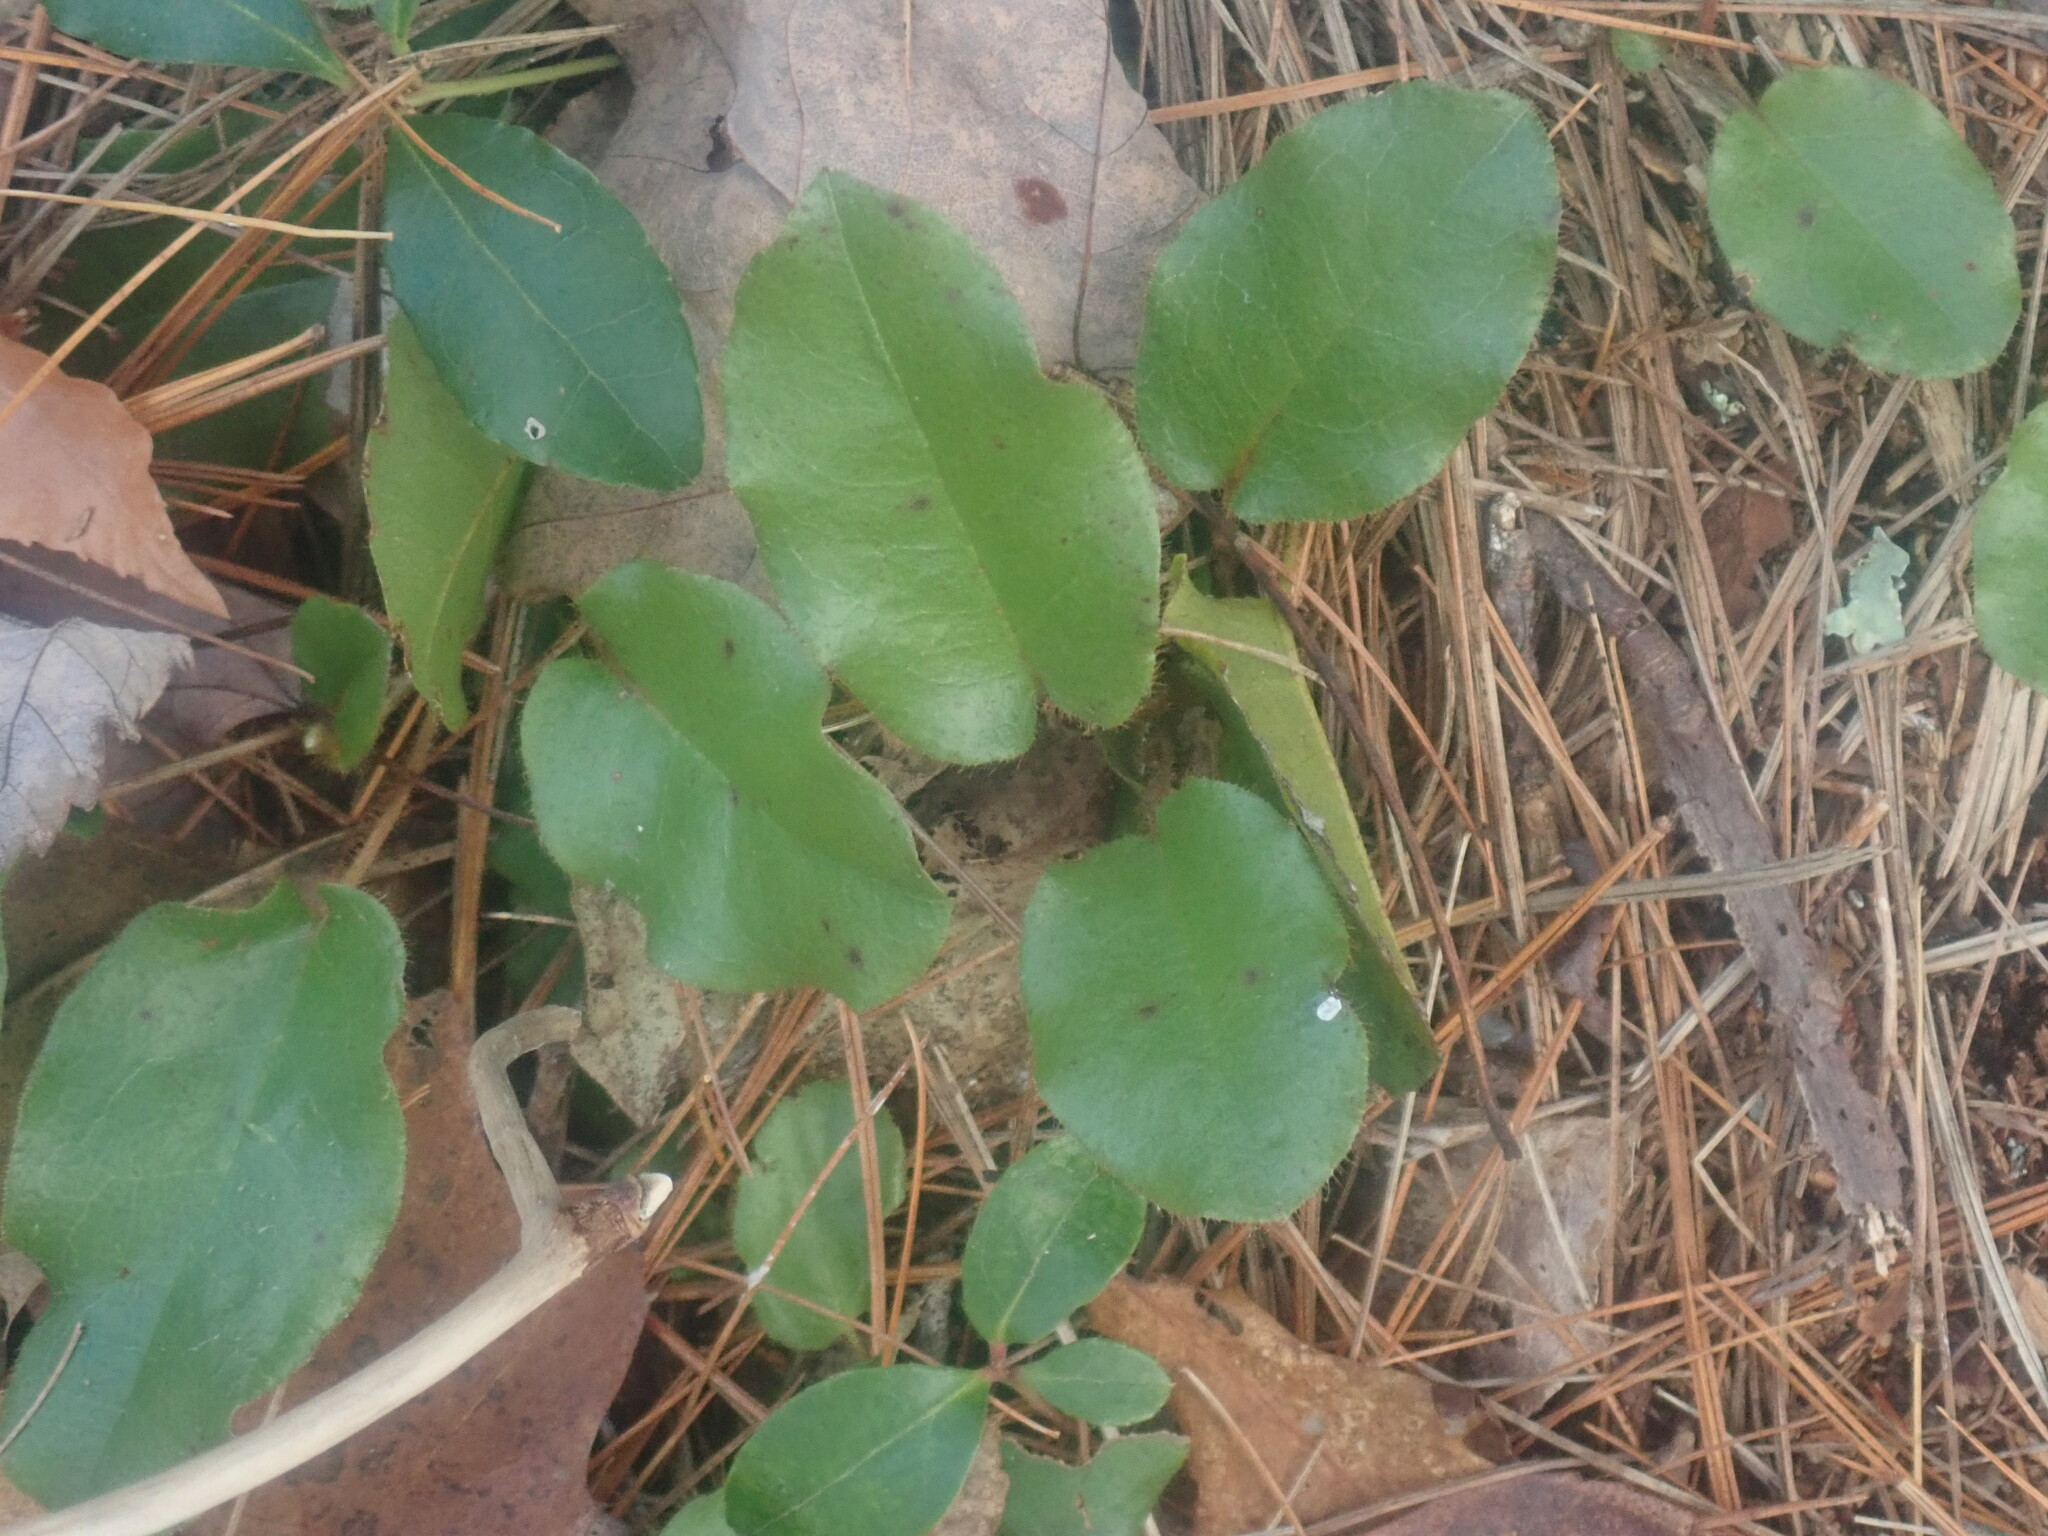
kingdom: Plantae
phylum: Tracheophyta
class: Magnoliopsida
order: Ericales
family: Ericaceae
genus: Epigaea
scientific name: Epigaea repens
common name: Gravelroot
